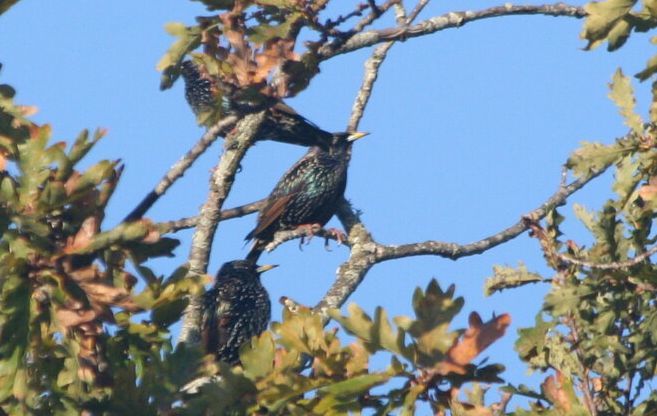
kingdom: Animalia
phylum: Chordata
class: Aves
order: Passeriformes
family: Sturnidae
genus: Sturnus
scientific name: Sturnus vulgaris
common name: Common starling
